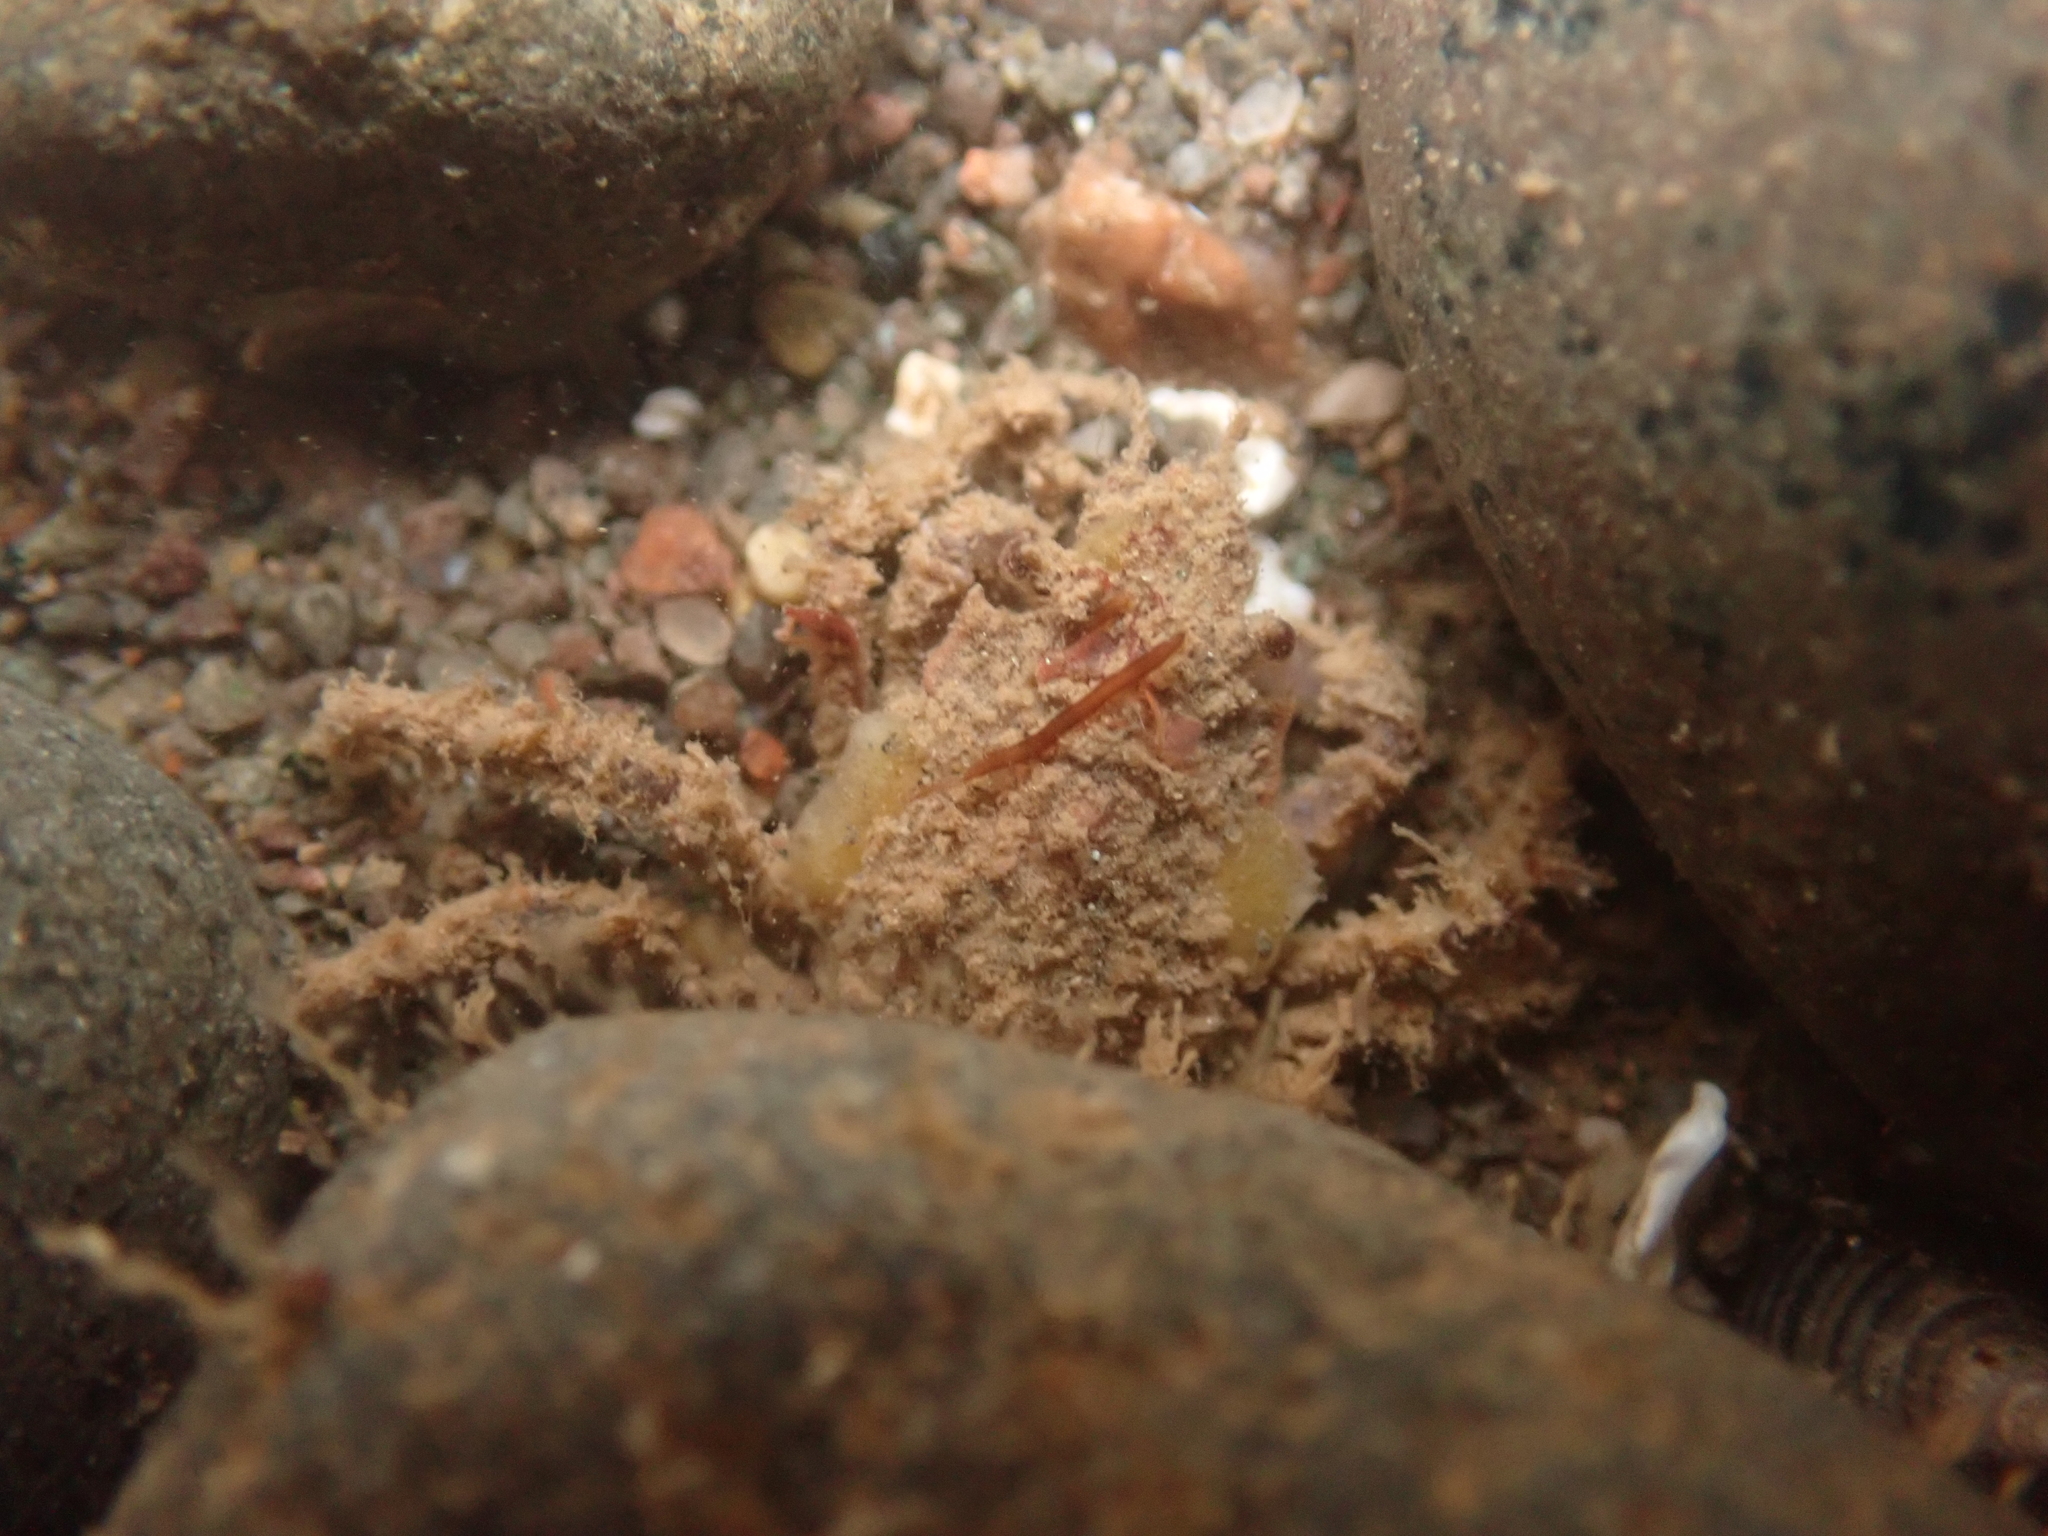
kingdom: Animalia
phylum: Arthropoda
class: Malacostraca
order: Decapoda
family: Oregoniidae
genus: Hyas
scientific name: Hyas coarctatus
